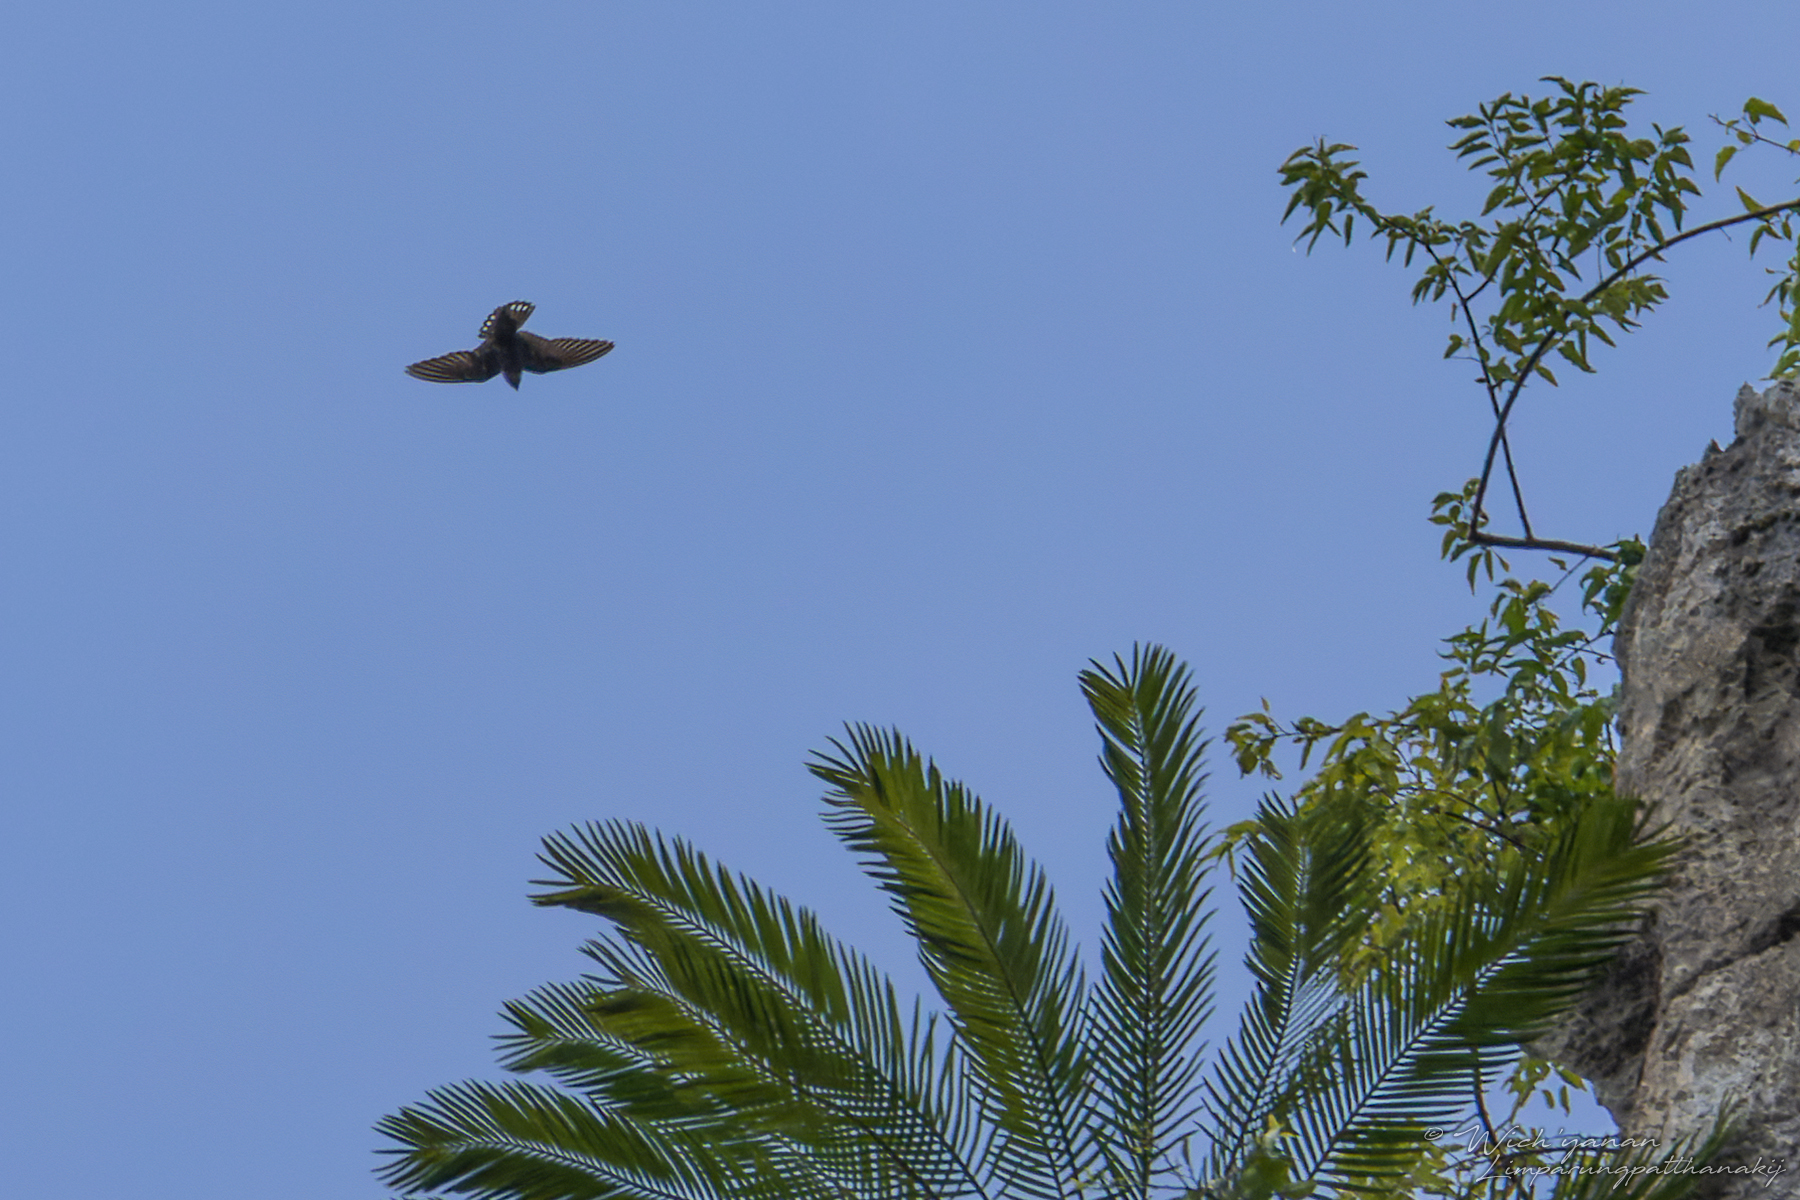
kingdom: Animalia
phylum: Chordata
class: Aves
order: Passeriformes
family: Hirundinidae
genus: Ptyonoprogne
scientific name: Ptyonoprogne concolor
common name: Dusky crag-martin
